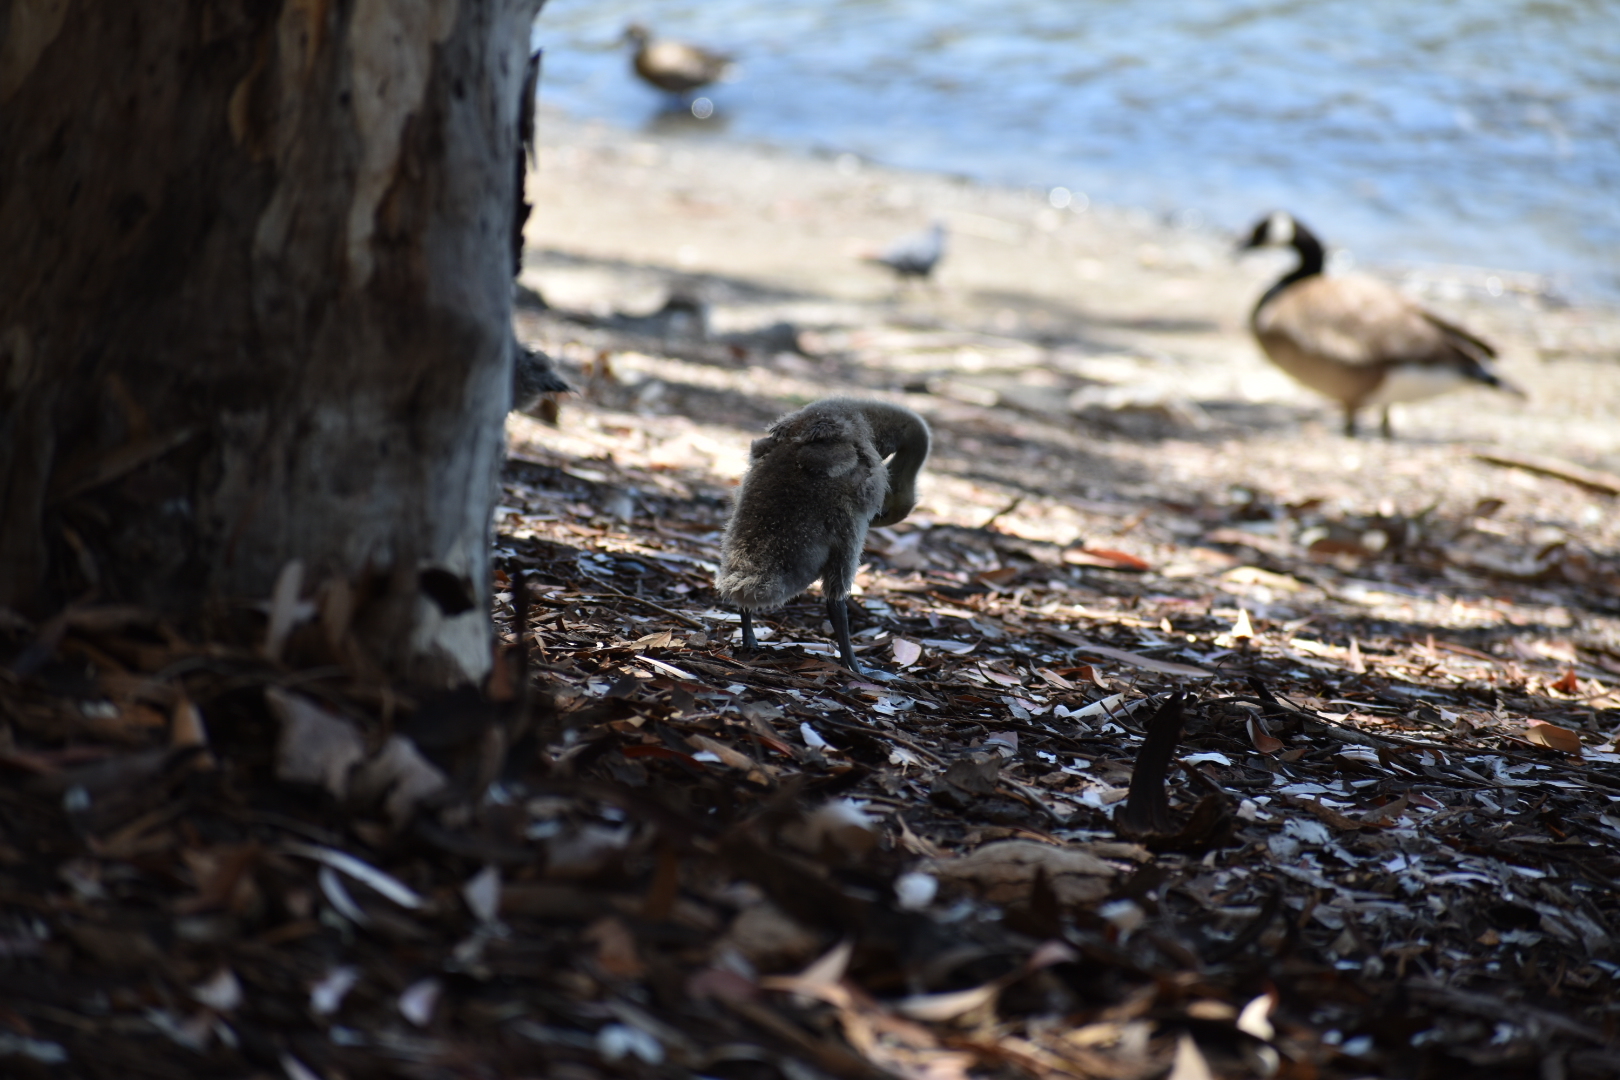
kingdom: Animalia
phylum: Chordata
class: Aves
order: Anseriformes
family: Anatidae
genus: Branta
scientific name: Branta canadensis
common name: Canada goose
